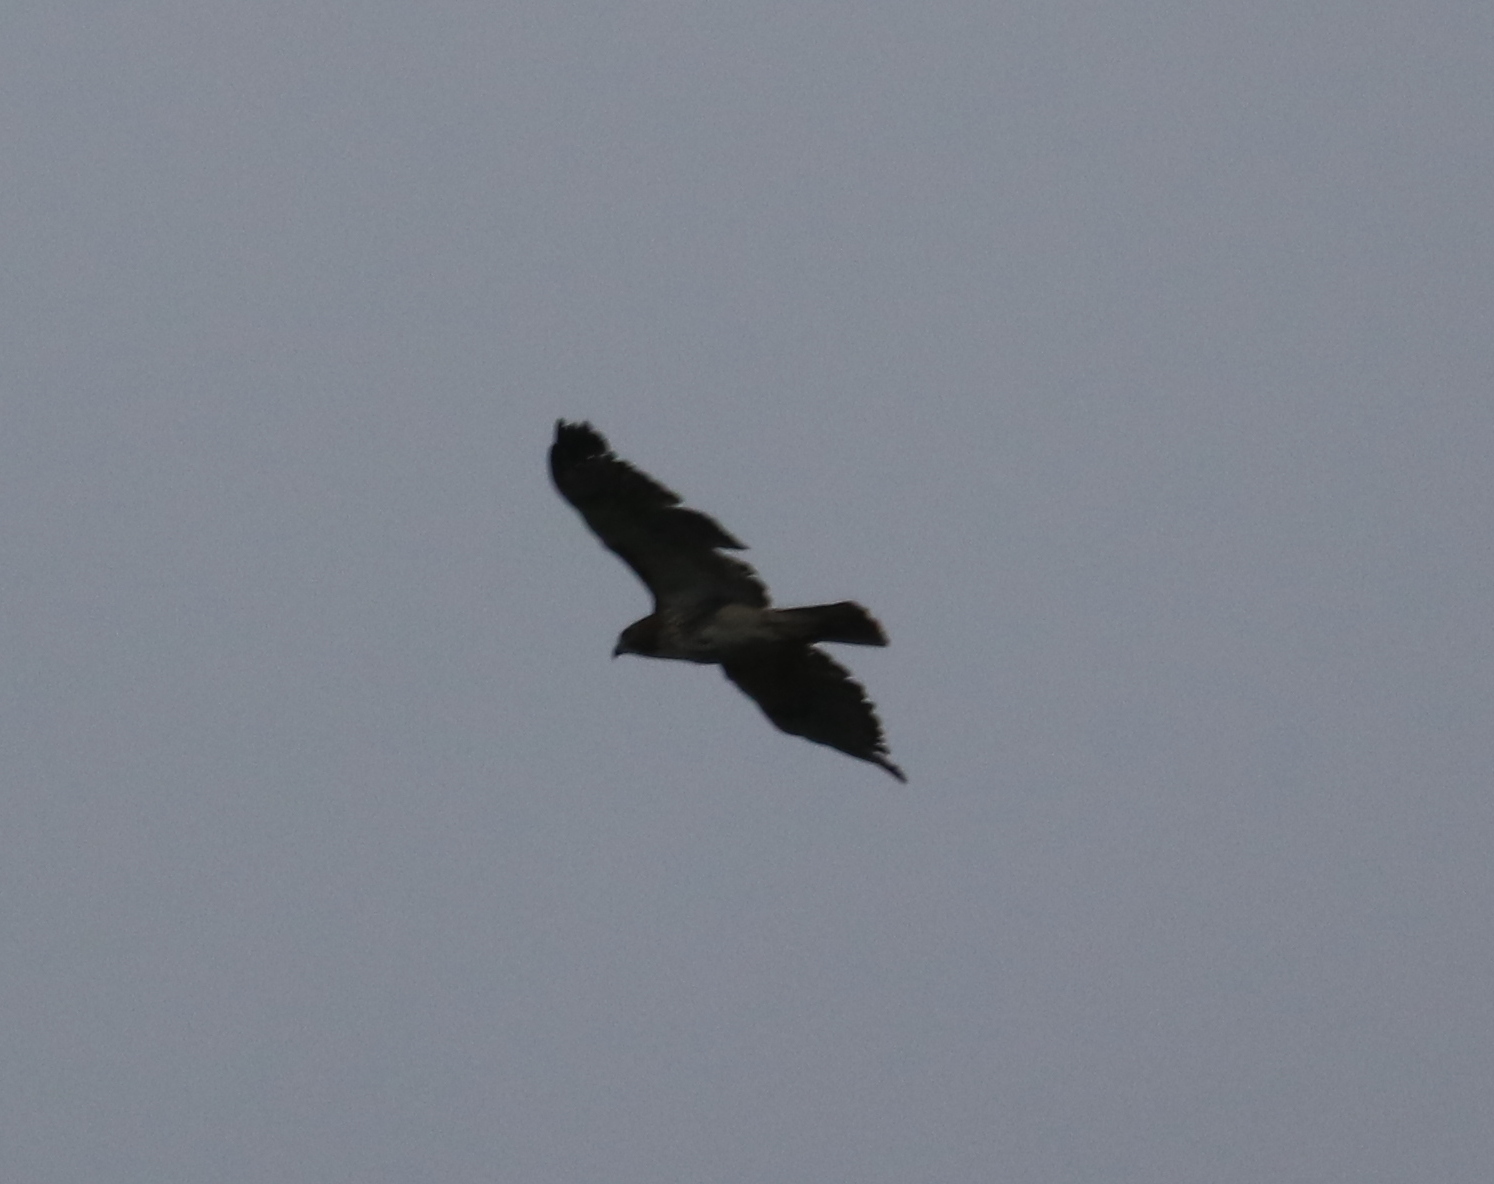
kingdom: Animalia
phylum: Chordata
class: Aves
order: Accipitriformes
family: Accipitridae
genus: Buteo
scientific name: Buteo jamaicensis
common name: Red-tailed hawk
